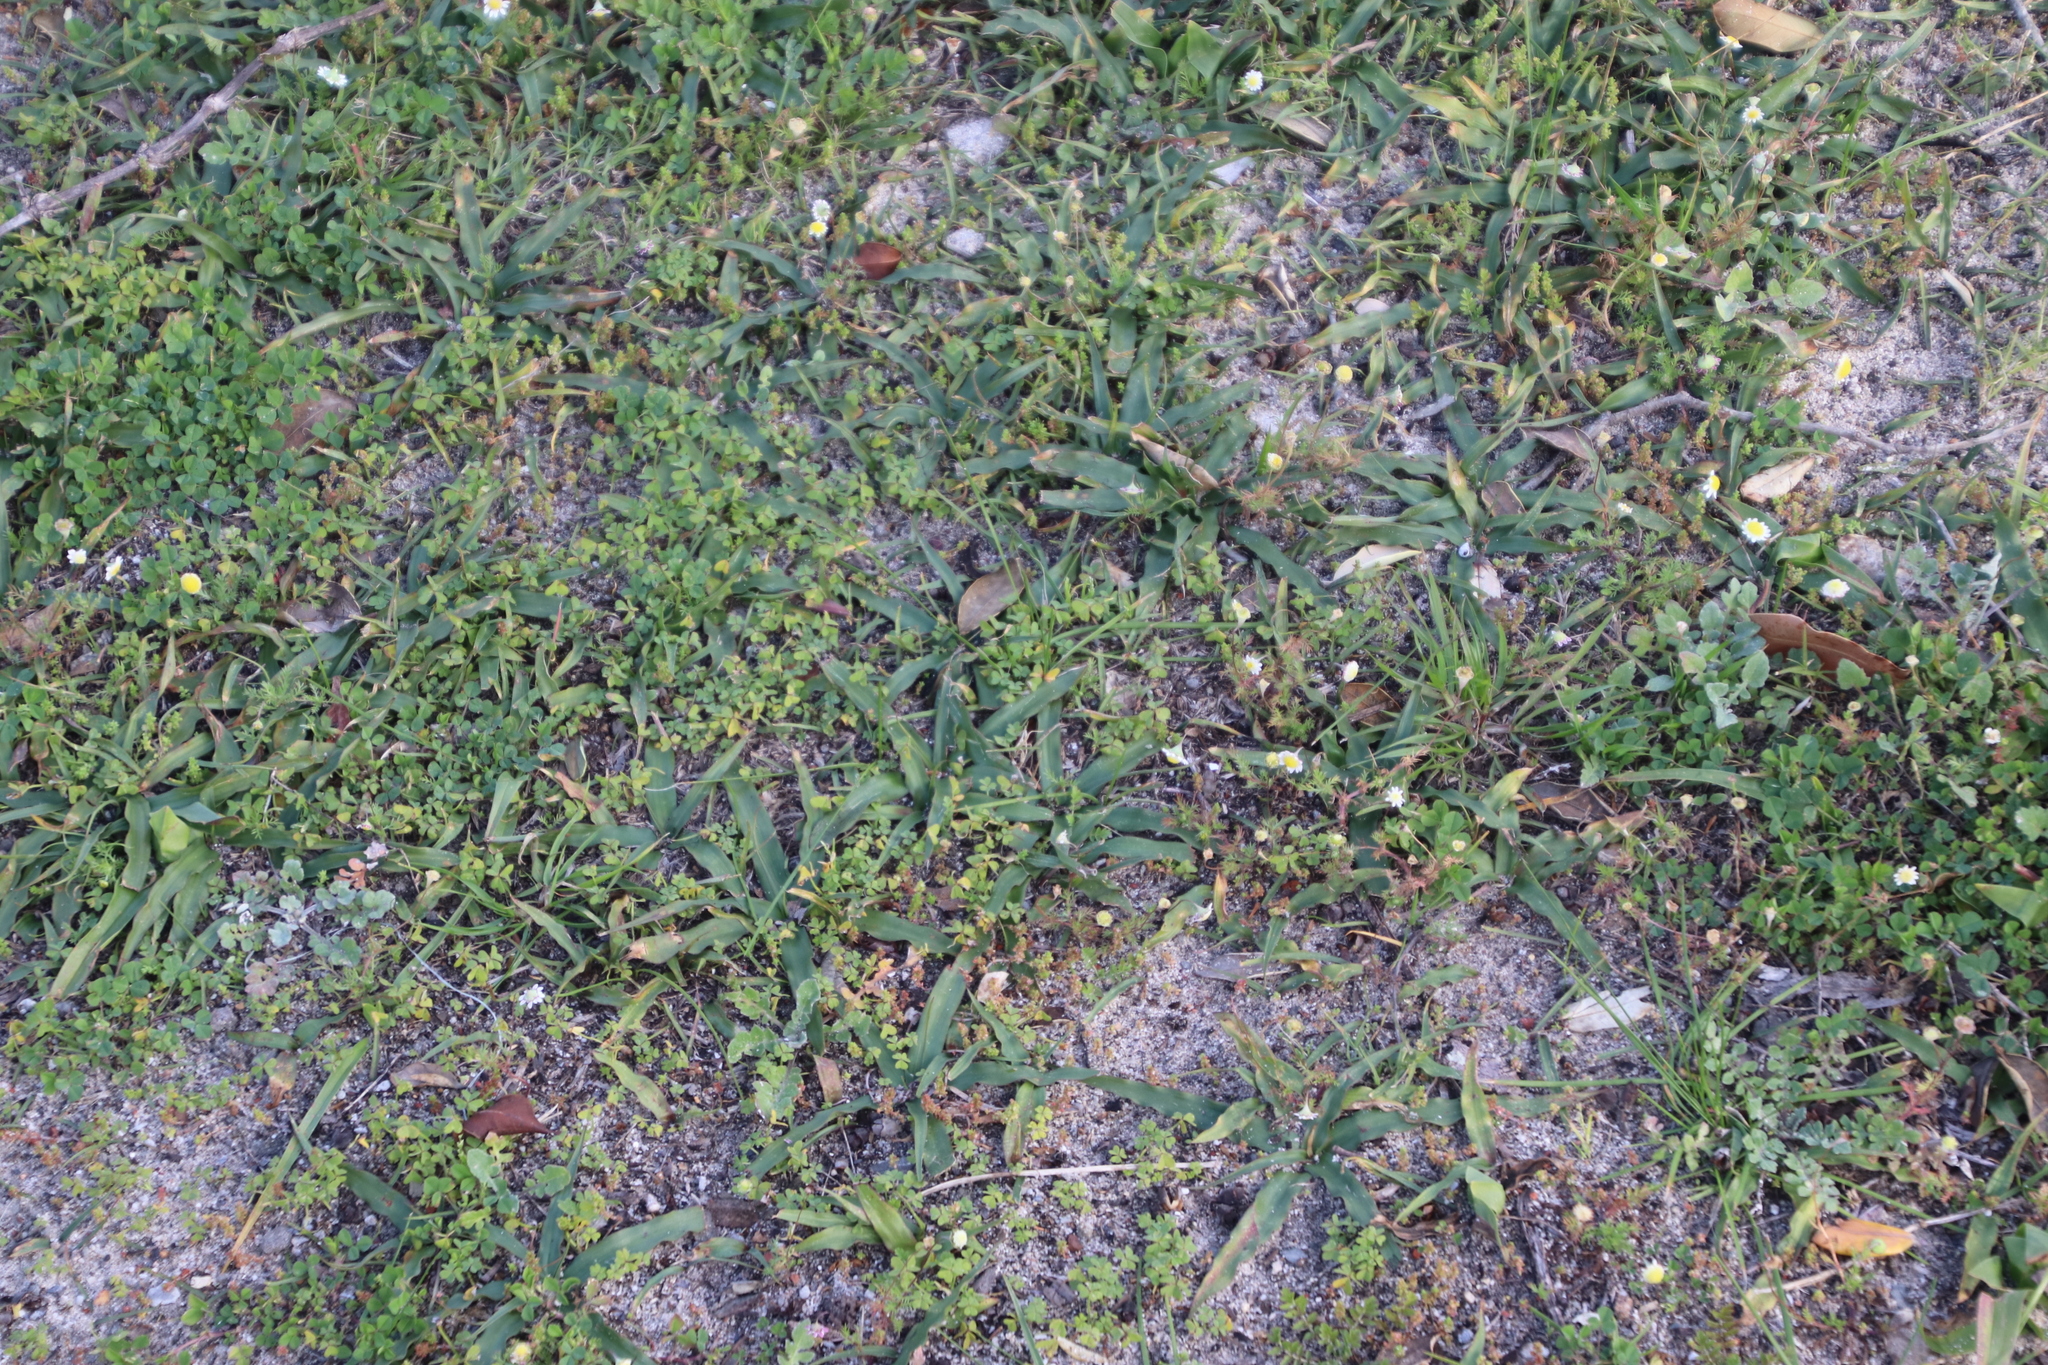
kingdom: Plantae
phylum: Tracheophyta
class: Liliopsida
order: Asparagales
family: Tecophilaeaceae
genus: Cyanella
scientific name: Cyanella hyacinthoides
